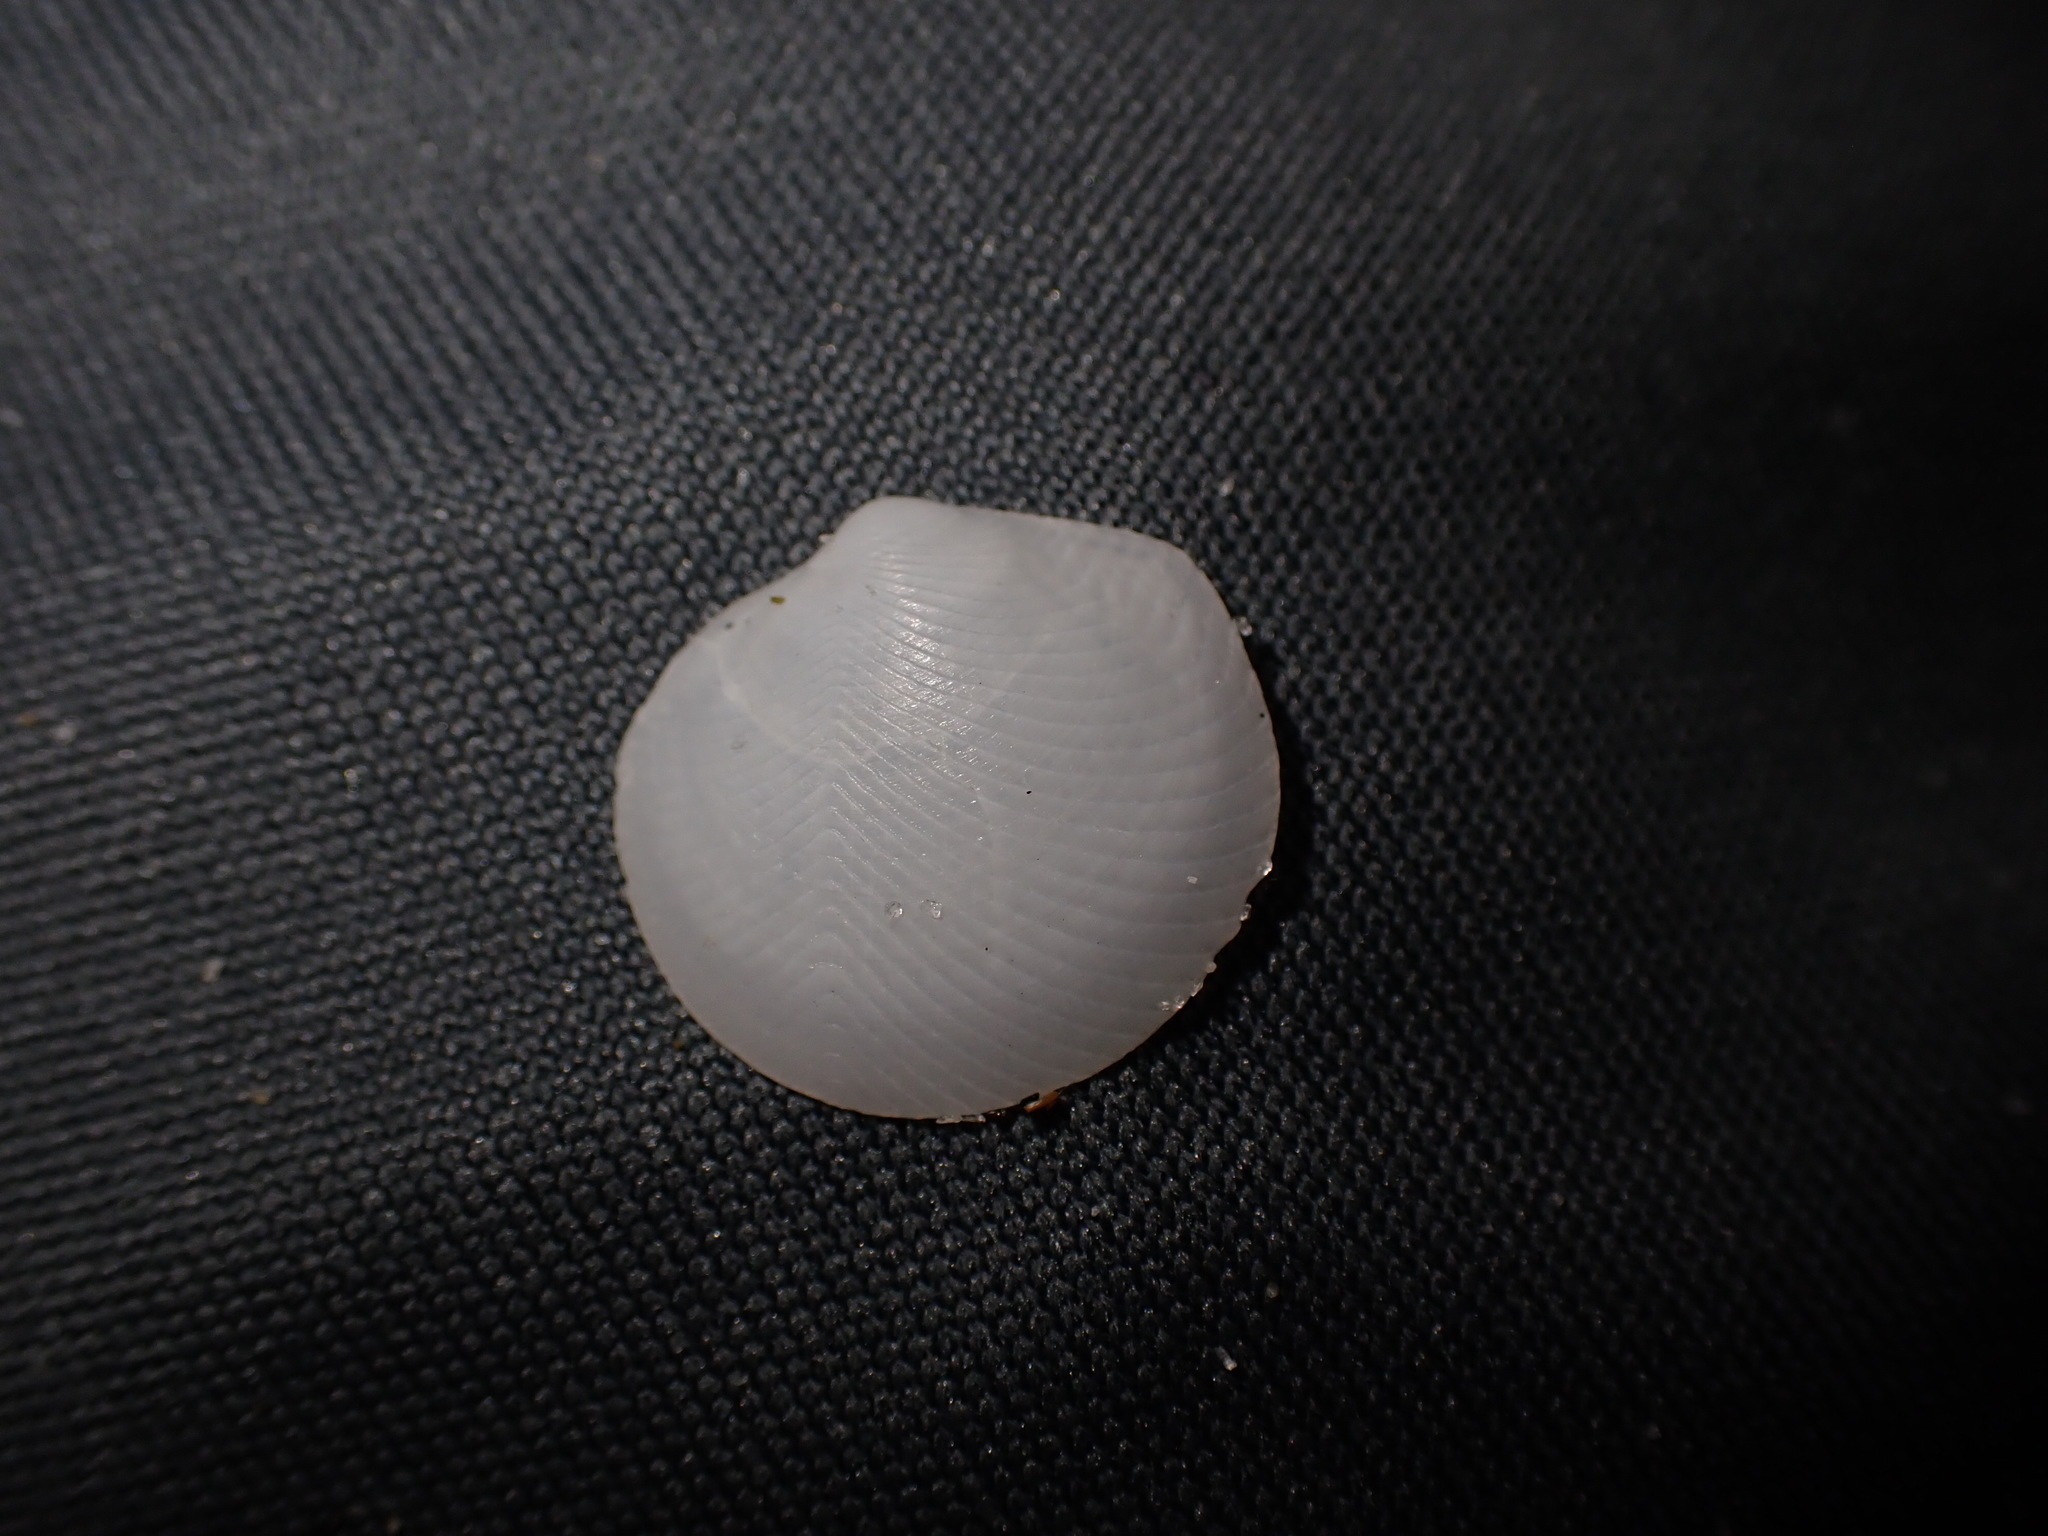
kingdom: Animalia
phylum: Mollusca
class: Bivalvia
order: Lucinida
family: Lucinidae
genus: Divalucina
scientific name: Divalucina cumingi
